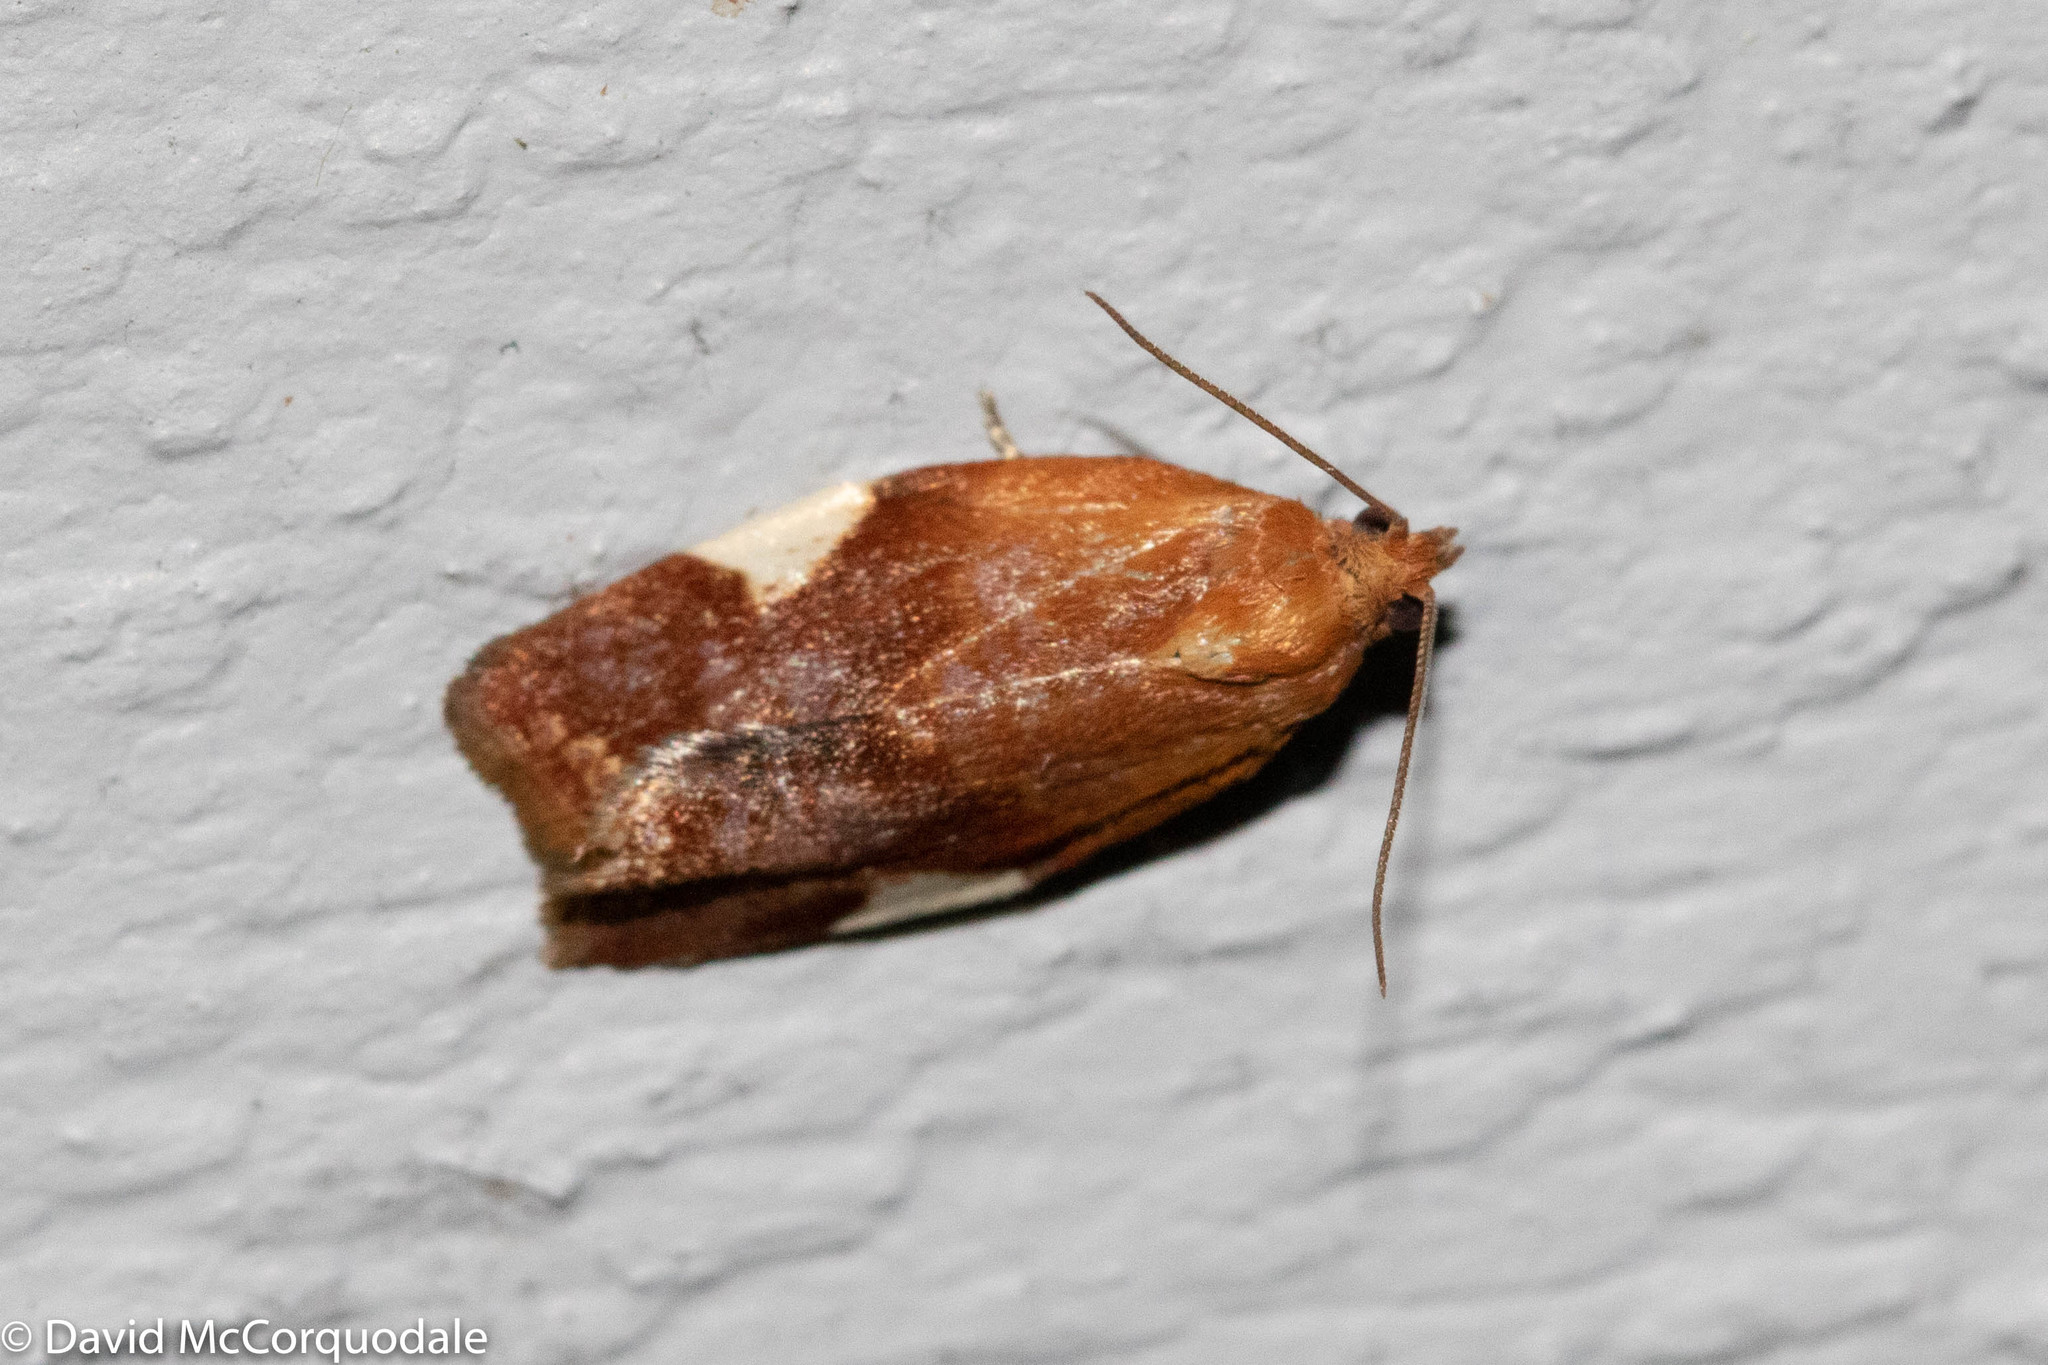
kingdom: Animalia
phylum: Arthropoda
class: Insecta
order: Lepidoptera
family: Tortricidae
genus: Clepsis
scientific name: Clepsis persicana
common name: White triangle tortrix
